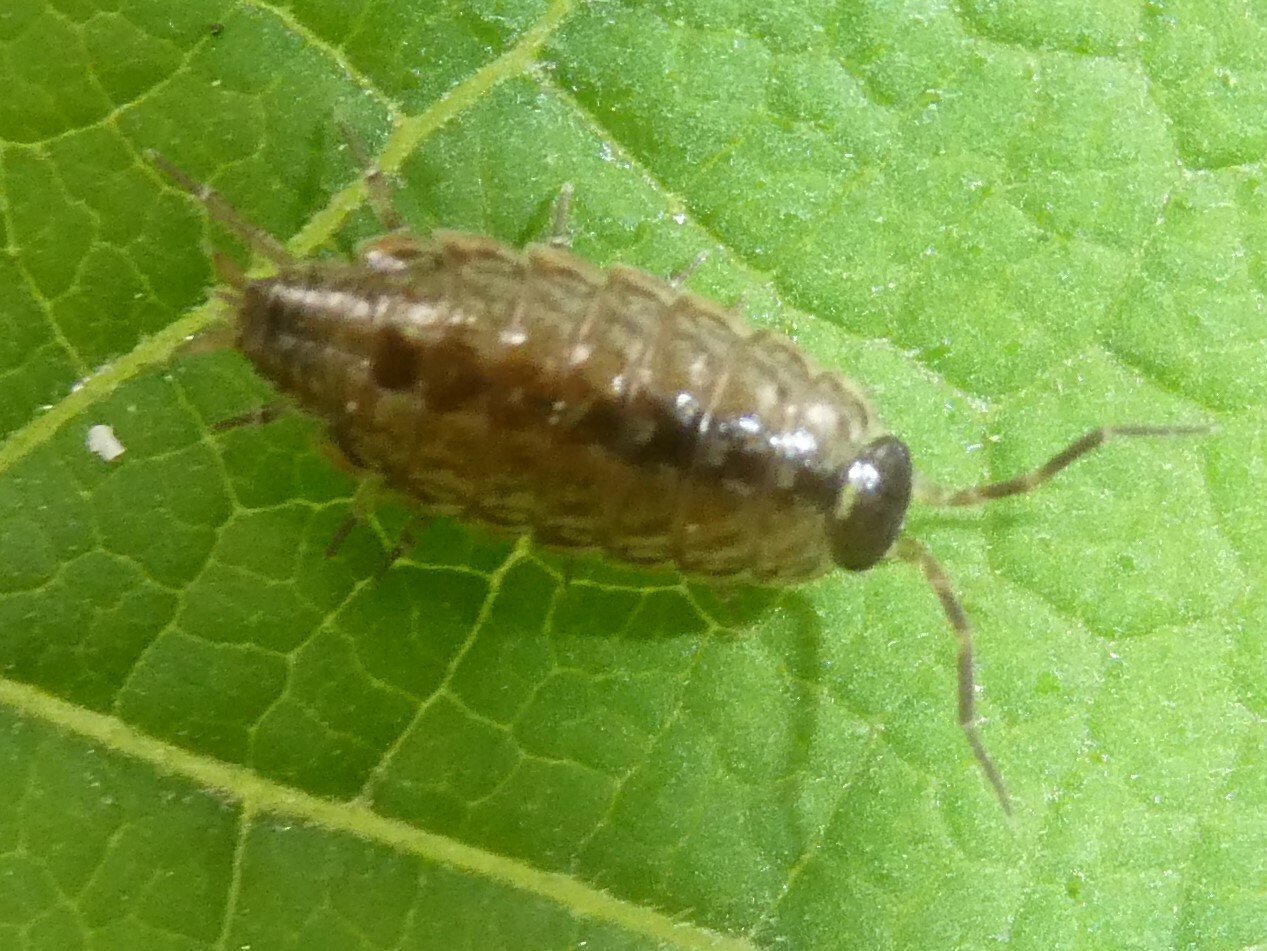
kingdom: Animalia
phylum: Arthropoda
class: Malacostraca
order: Isopoda
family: Philosciidae
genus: Philoscia
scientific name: Philoscia muscorum
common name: Common striped woodlouse
